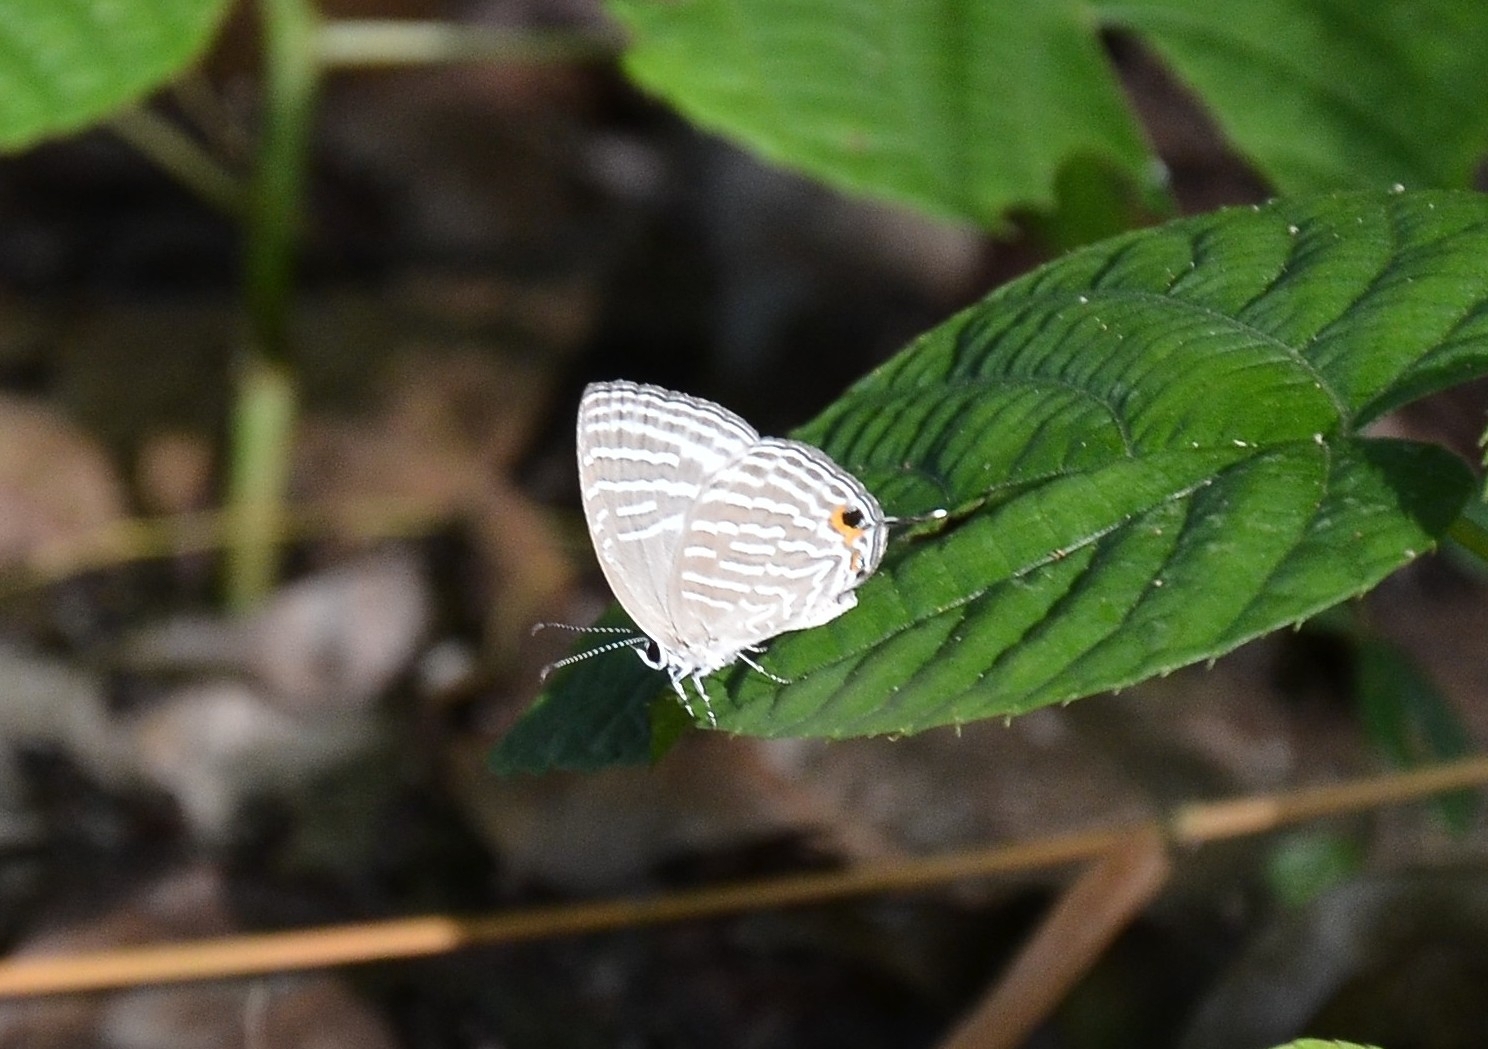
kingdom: Animalia
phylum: Arthropoda
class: Insecta
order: Lepidoptera
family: Lycaenidae
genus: Jamides
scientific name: Jamides celeno
